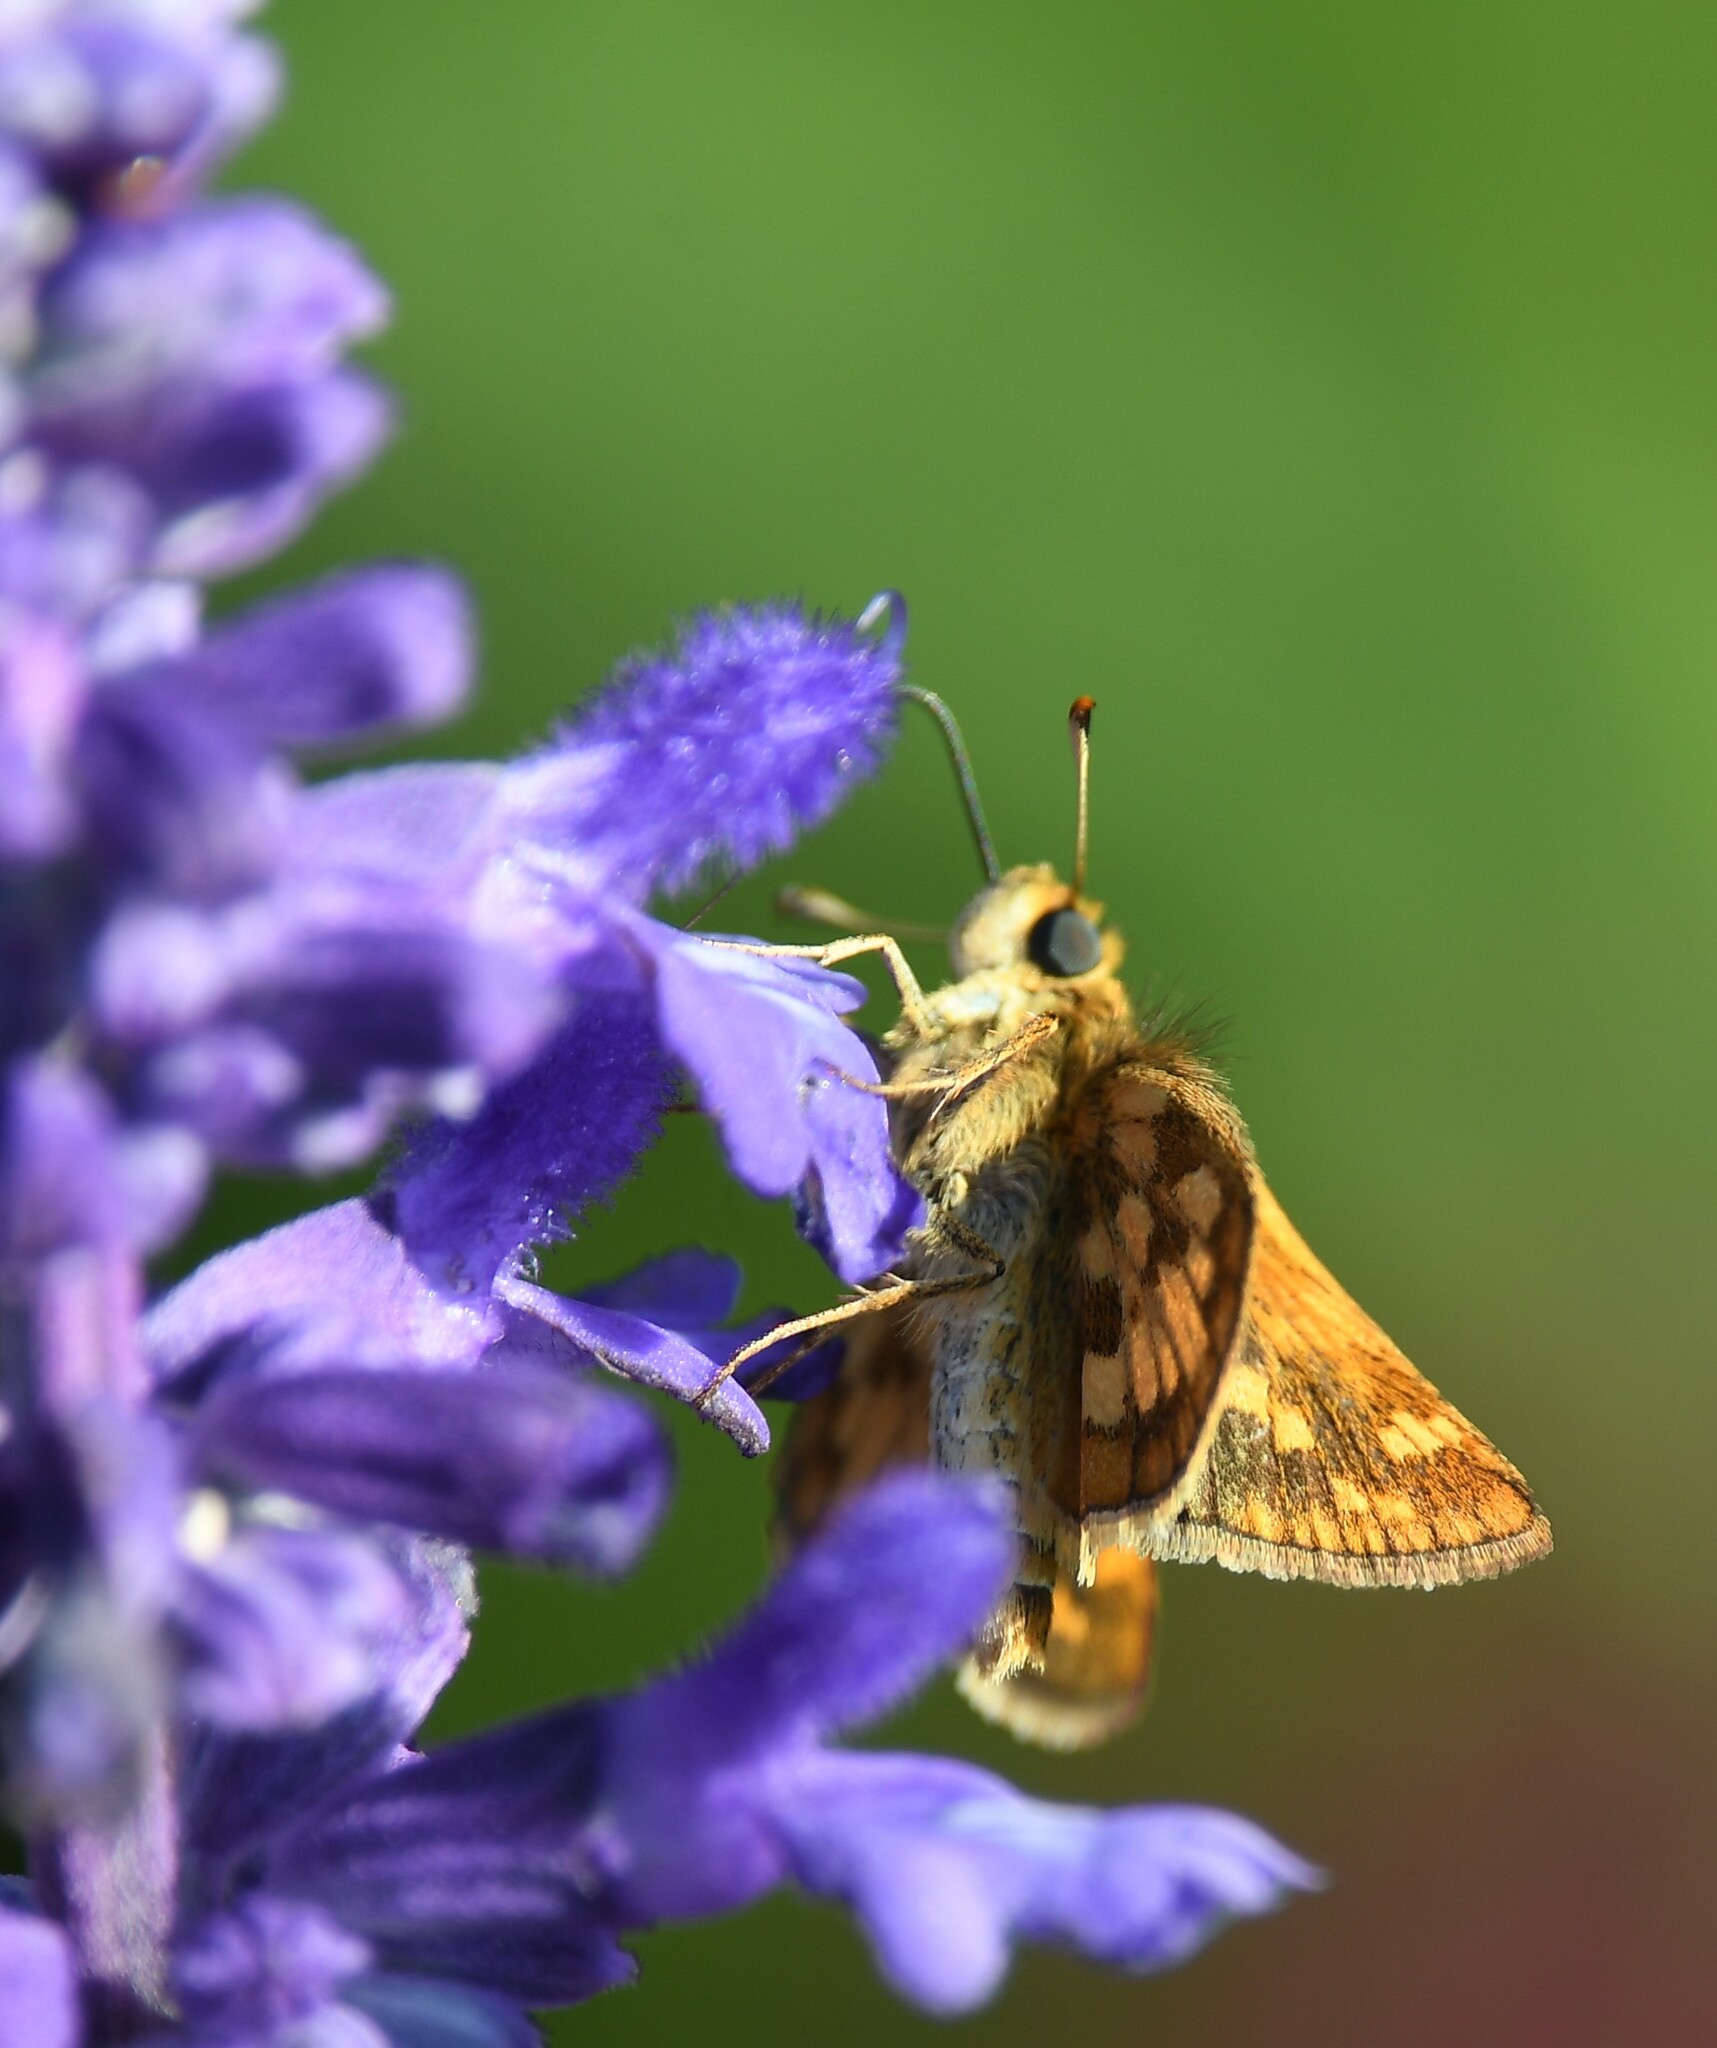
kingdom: Animalia
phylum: Arthropoda
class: Insecta
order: Lepidoptera
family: Hesperiidae
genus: Polites
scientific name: Polites coras
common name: Peck's skipper
